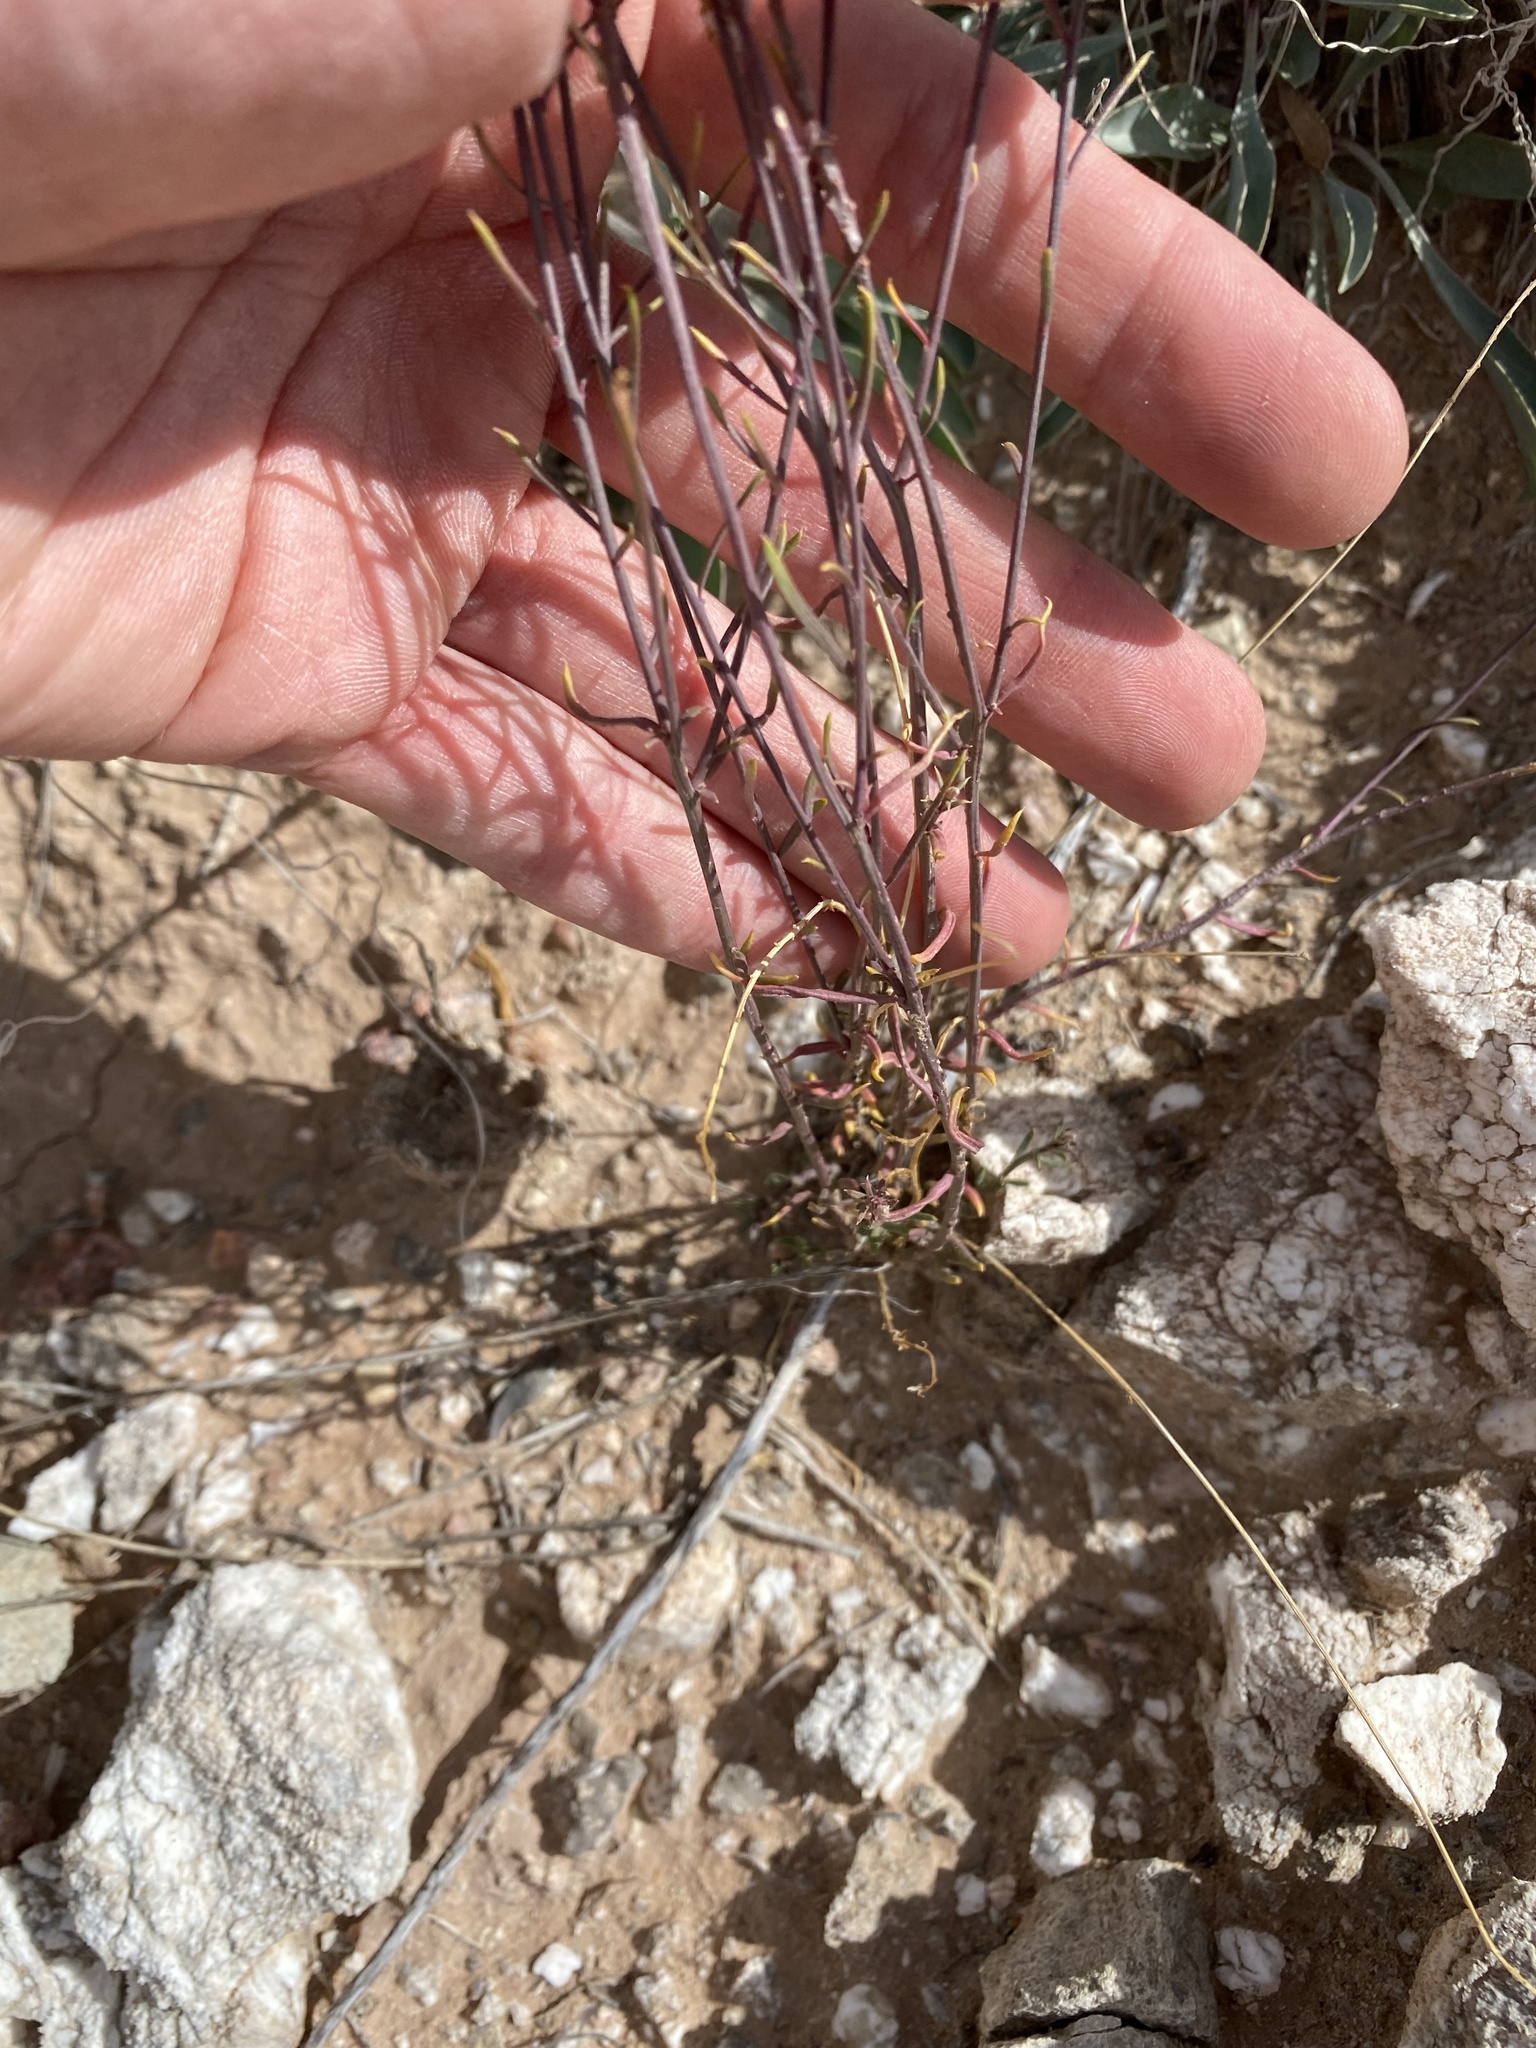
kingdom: Plantae
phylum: Tracheophyta
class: Magnoliopsida
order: Fabales
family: Polygalaceae
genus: Polygala
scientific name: Polygala alba
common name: White milkwort
